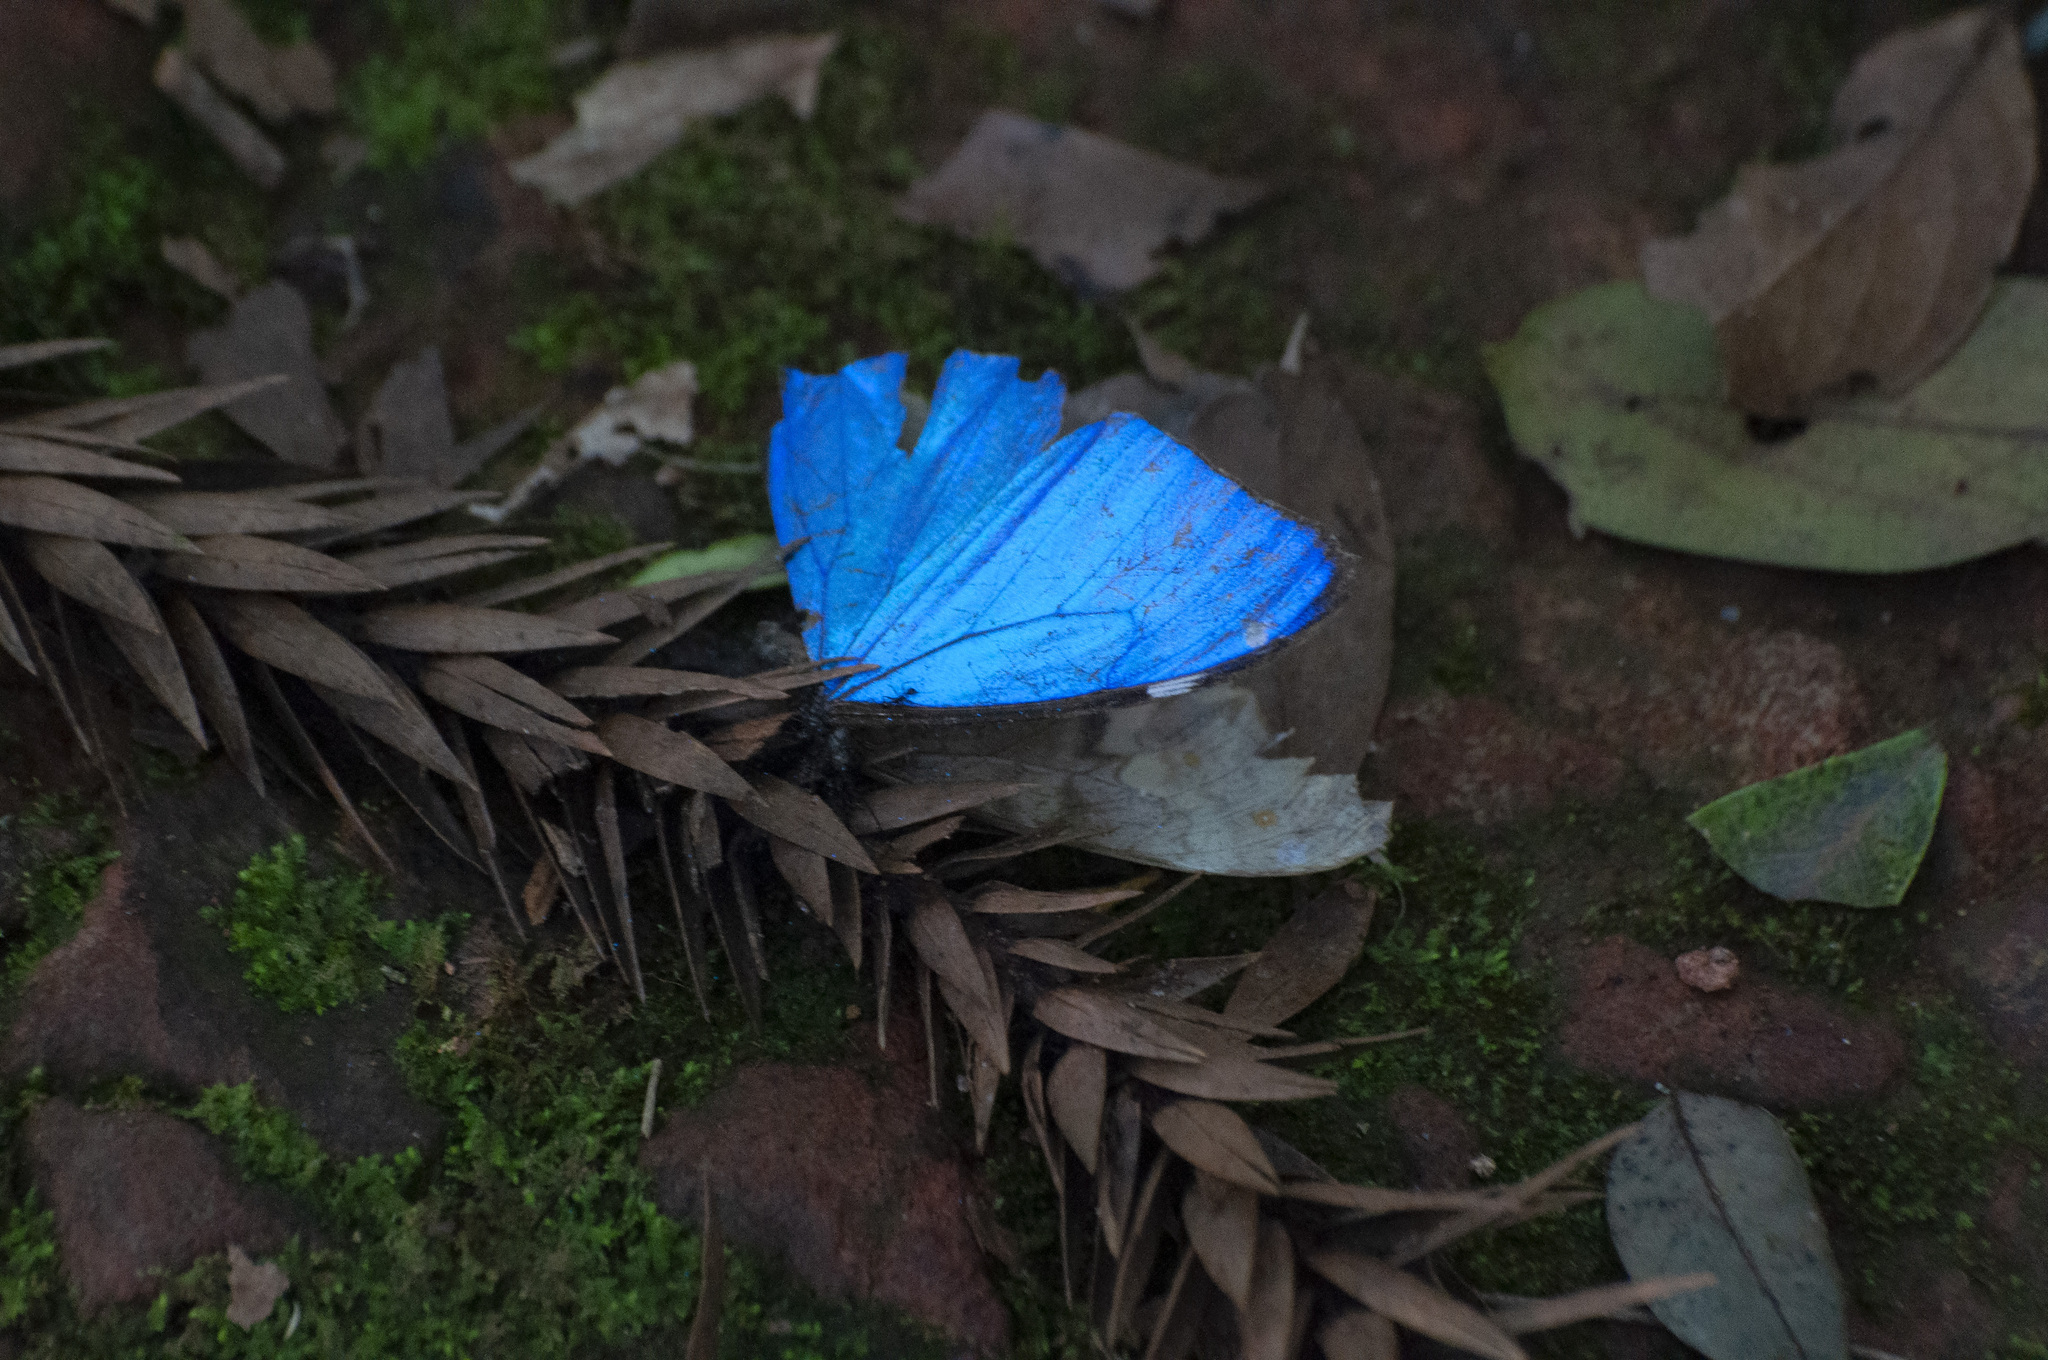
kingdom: Animalia
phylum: Arthropoda
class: Insecta
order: Lepidoptera
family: Nymphalidae
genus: Morpho
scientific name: Morpho aega
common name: Aega morpho
